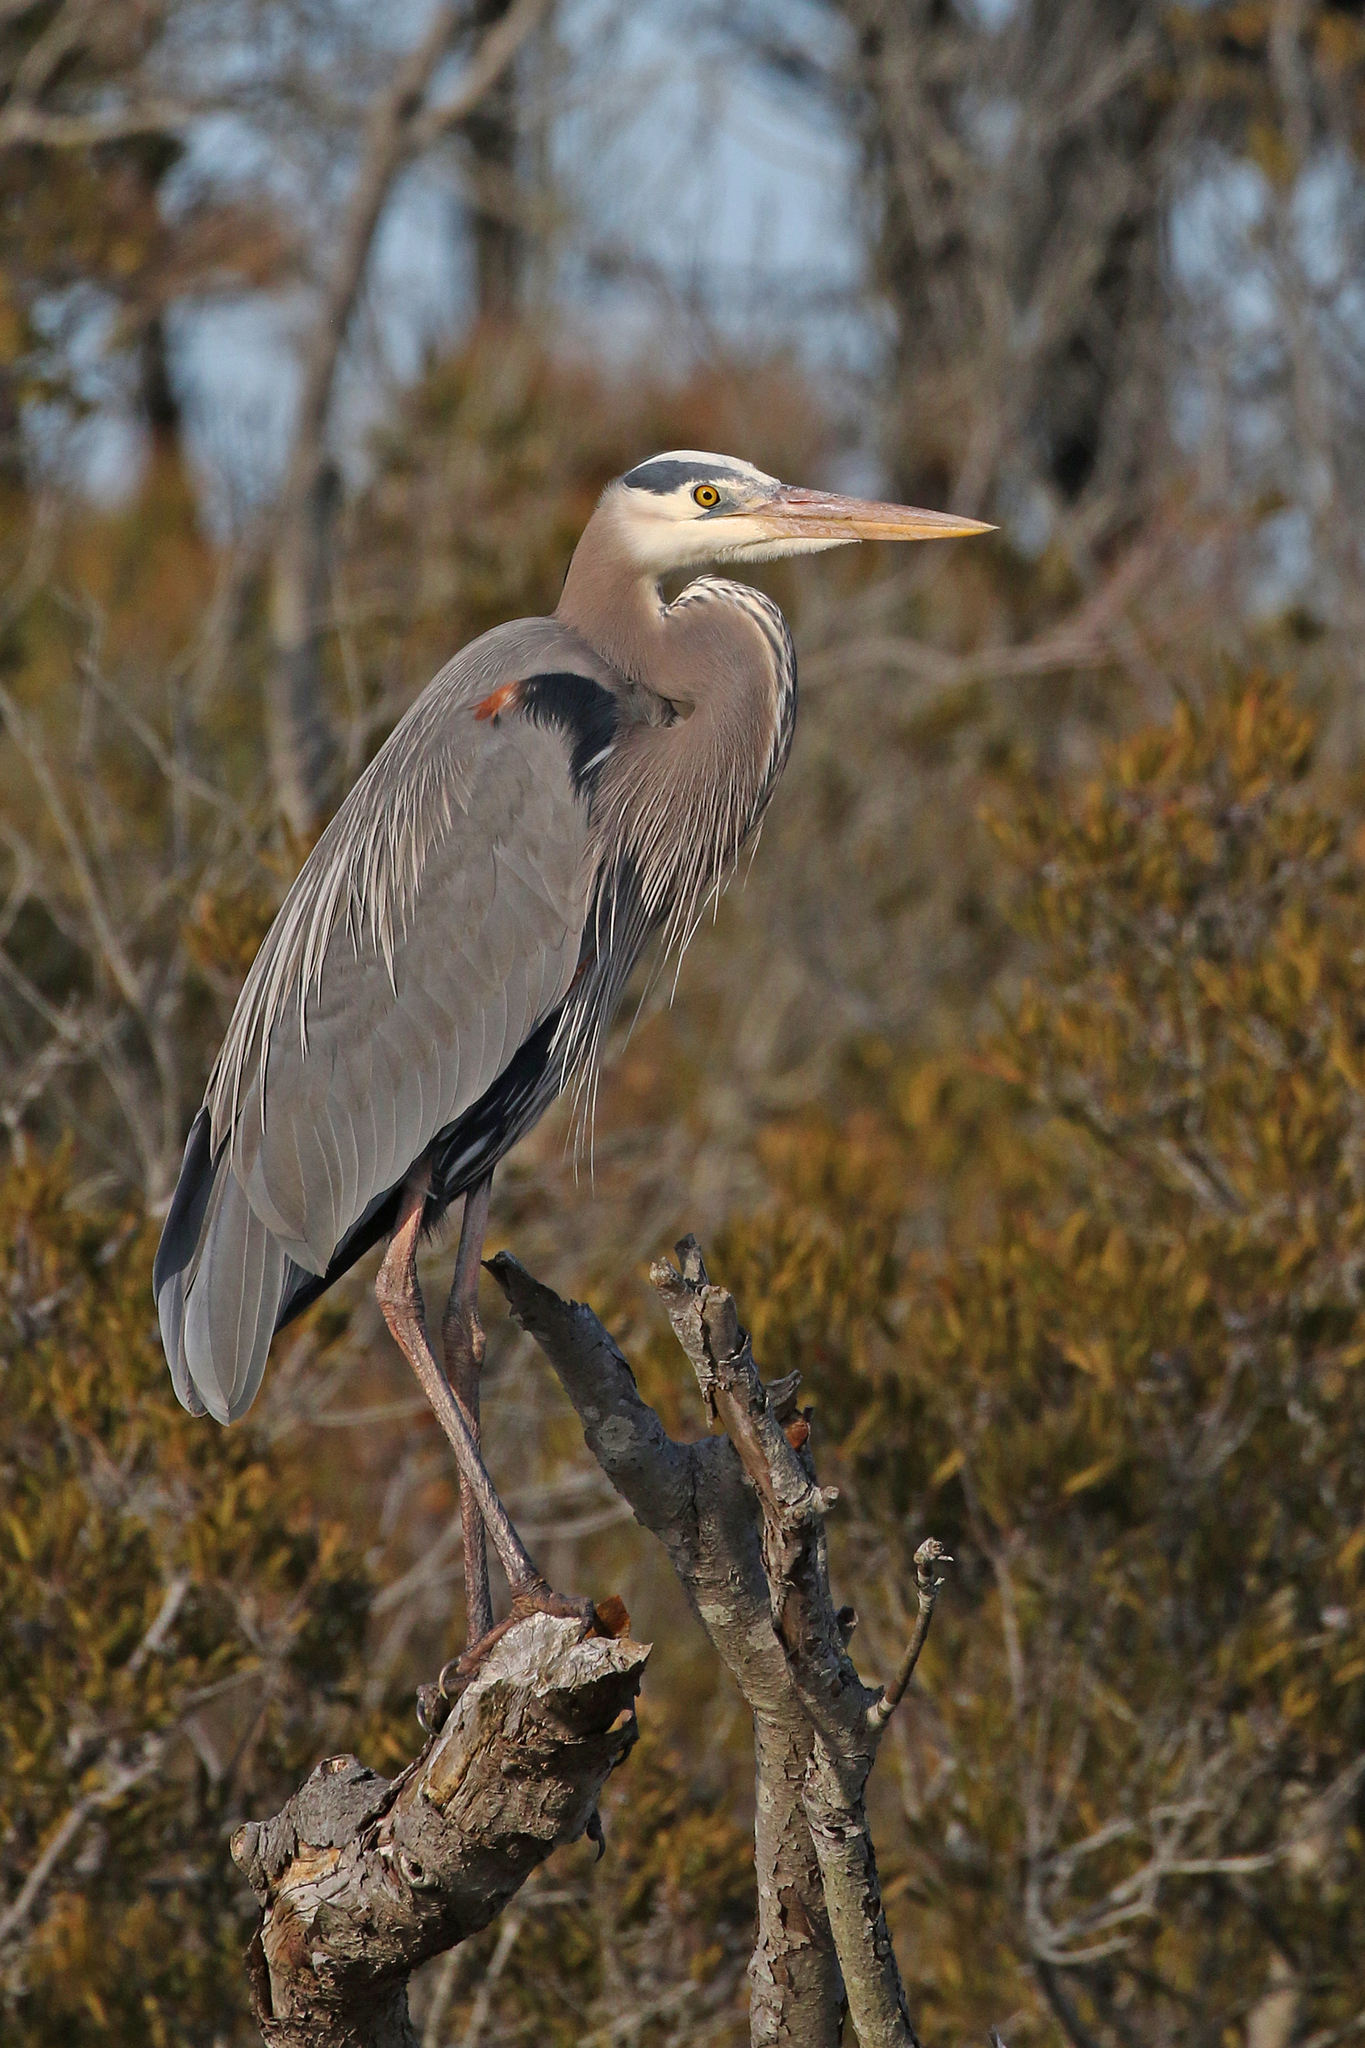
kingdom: Animalia
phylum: Chordata
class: Aves
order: Pelecaniformes
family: Ardeidae
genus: Ardea
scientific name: Ardea herodias
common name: Great blue heron
